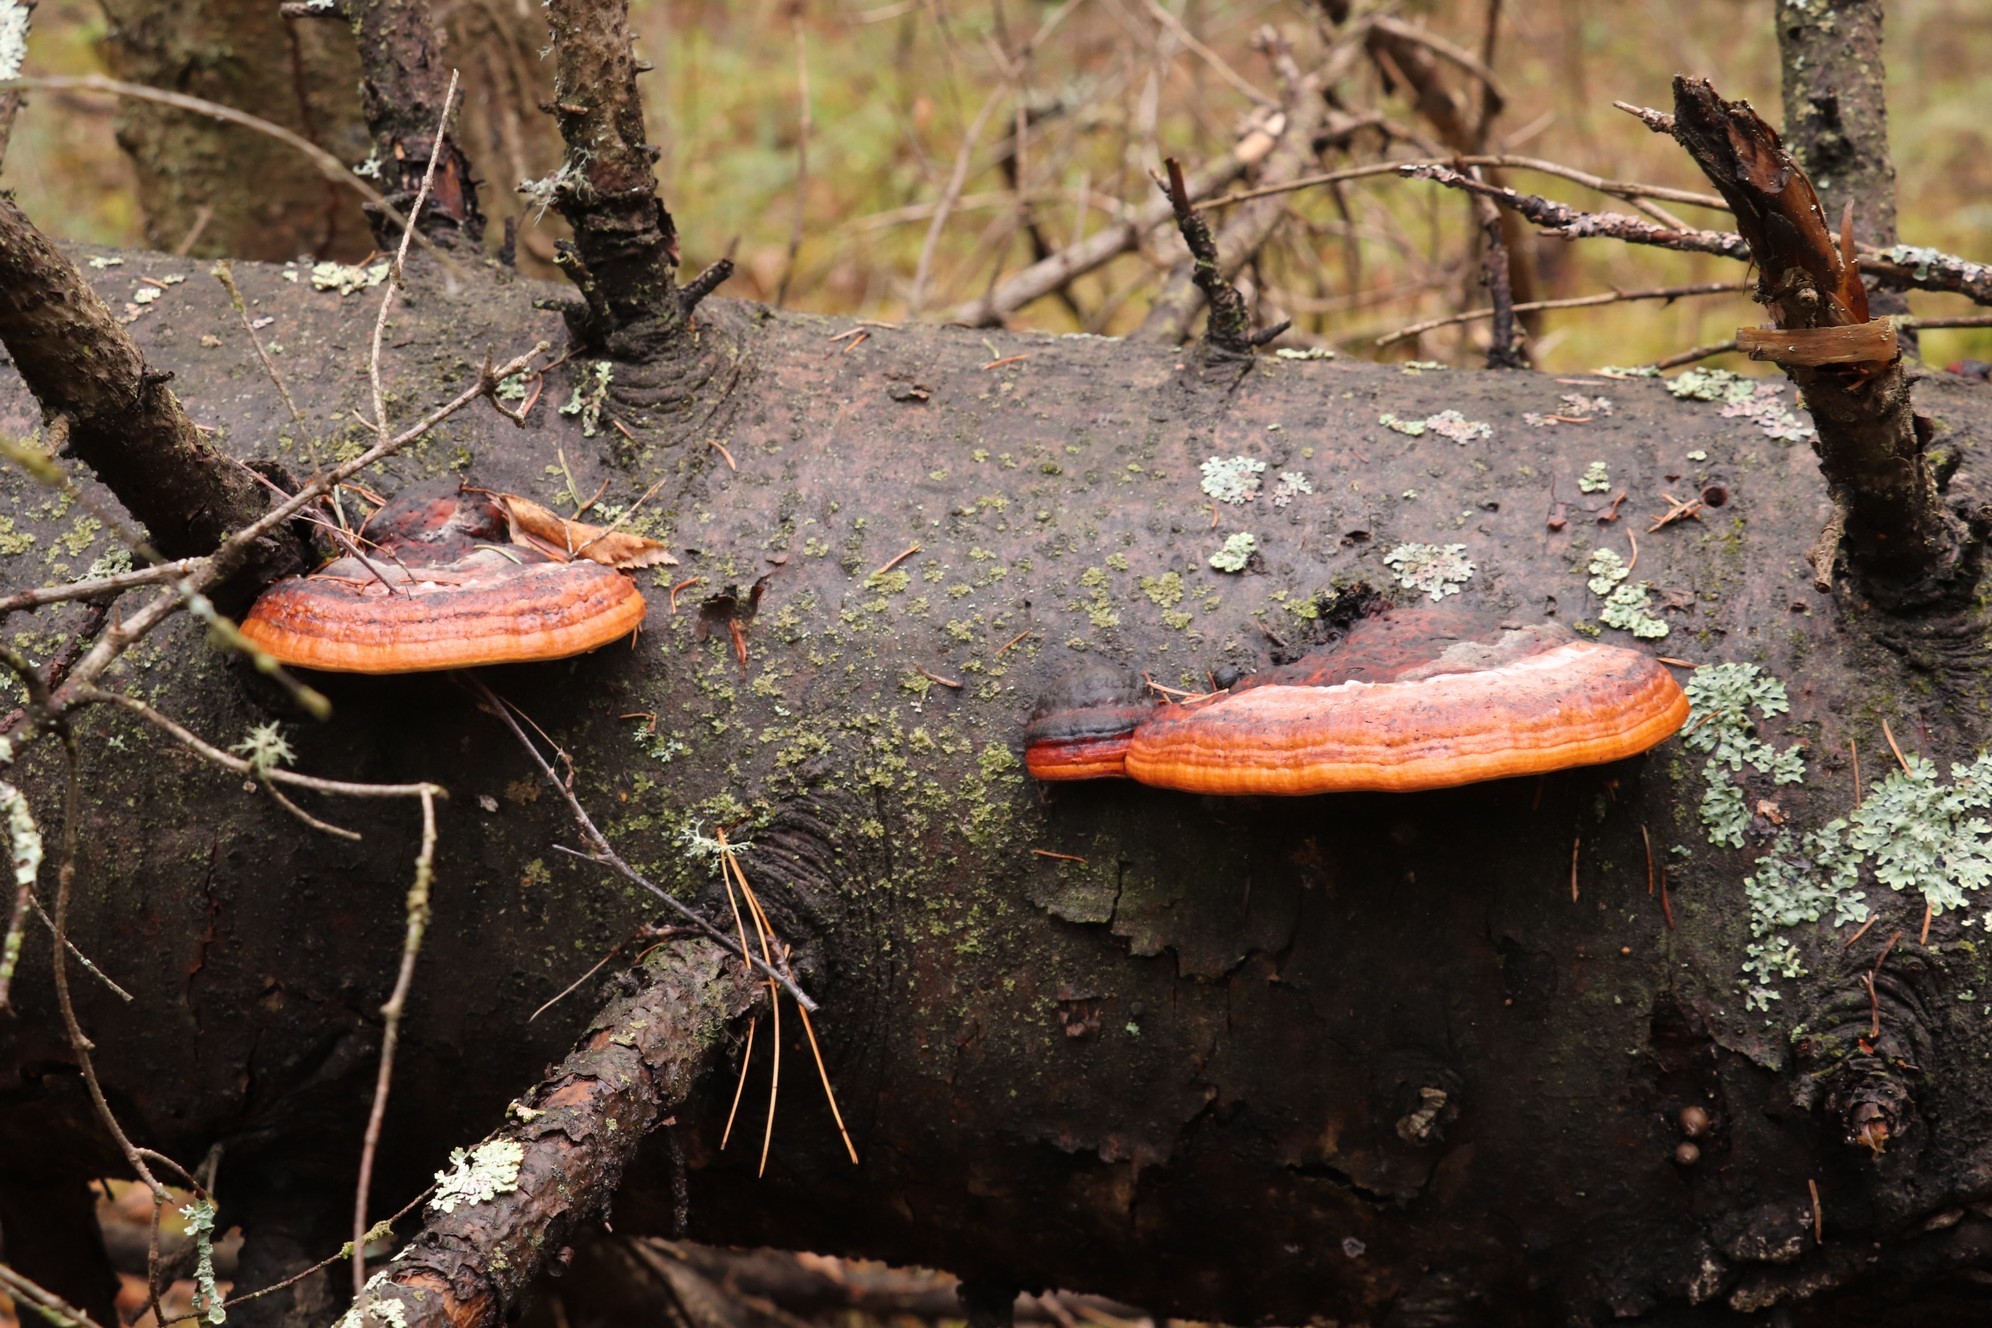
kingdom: Fungi
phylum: Basidiomycota
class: Agaricomycetes
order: Polyporales
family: Fomitopsidaceae
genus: Fomitopsis
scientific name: Fomitopsis pinicola
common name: Red-belted bracket
